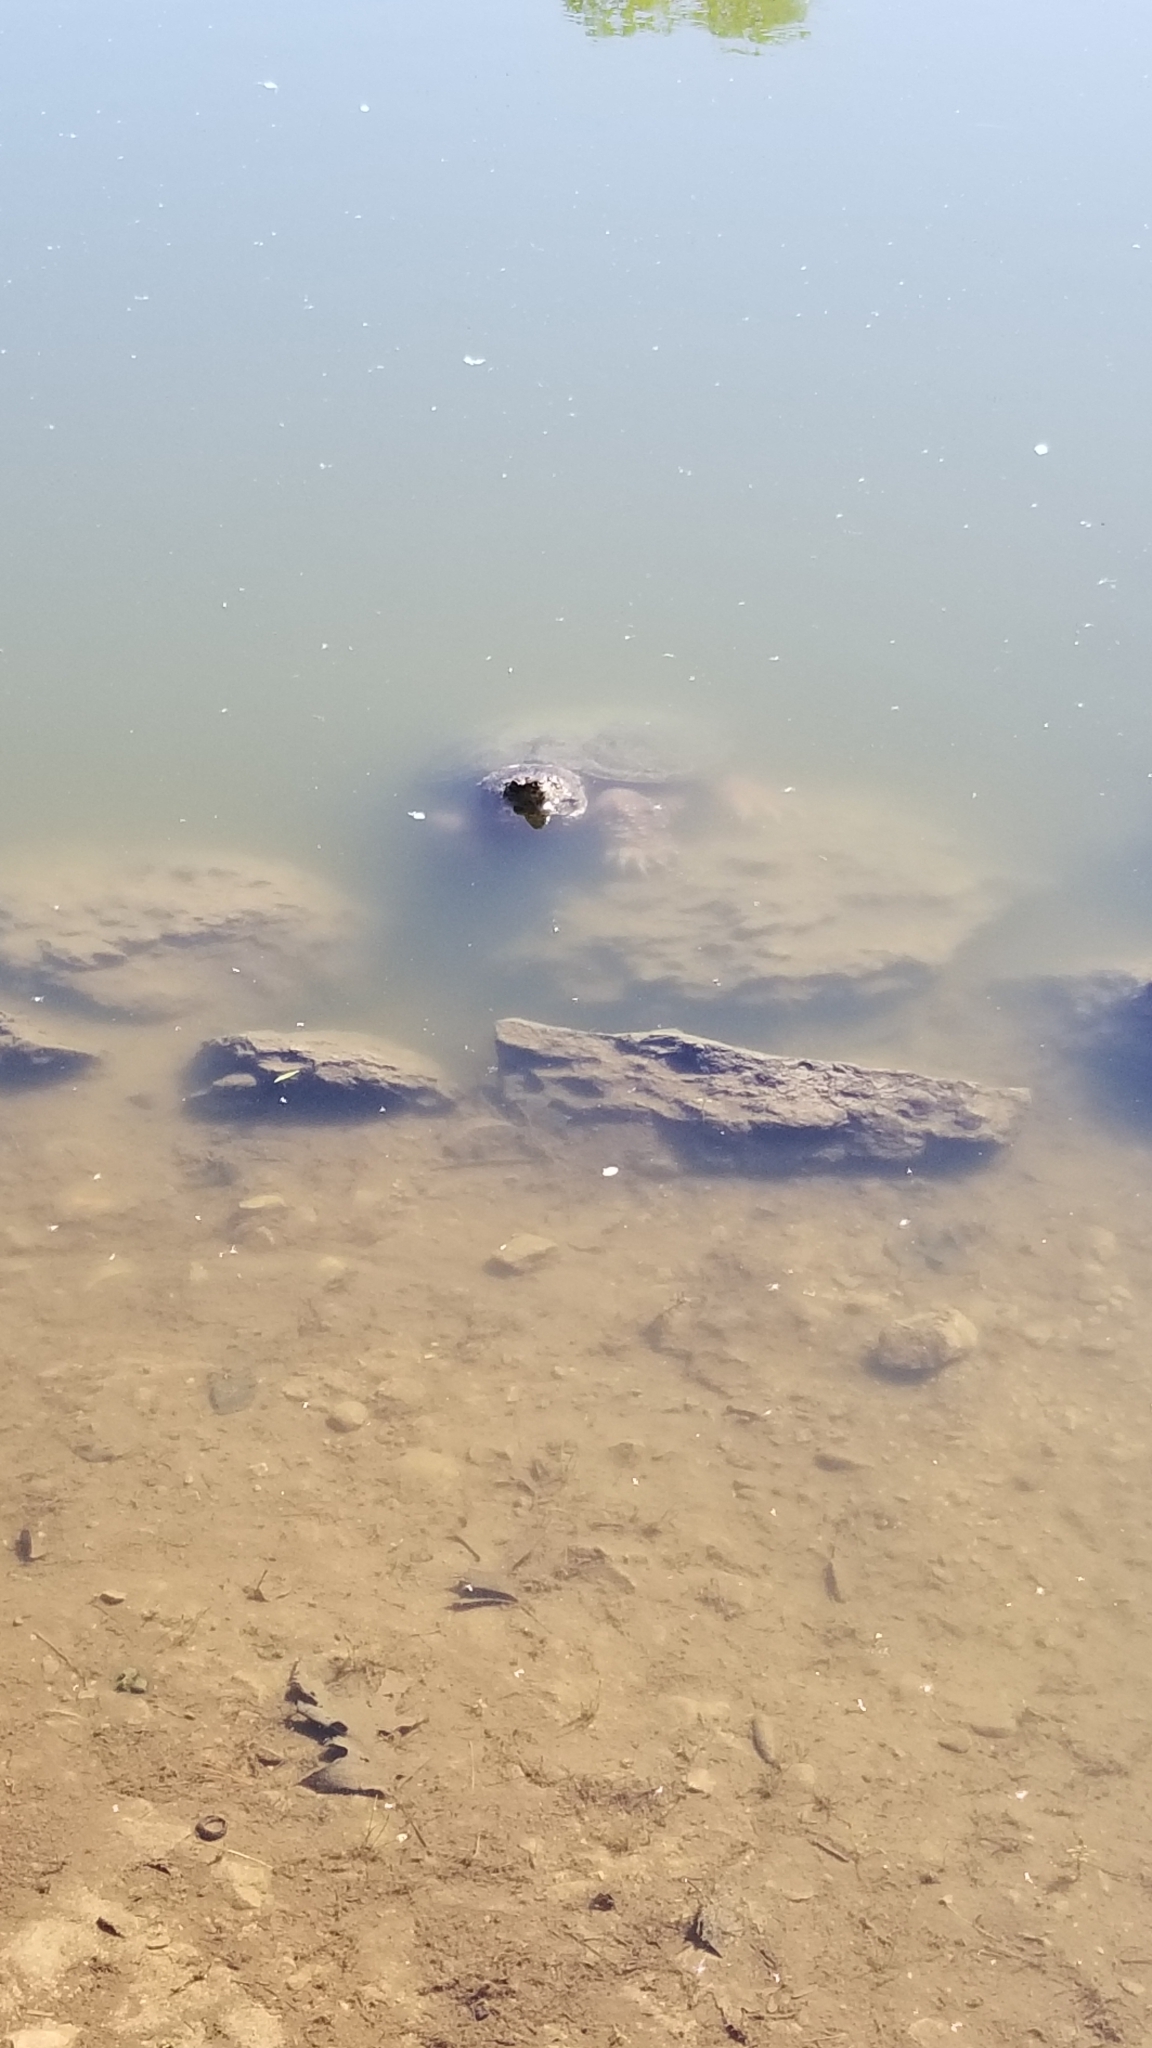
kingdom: Animalia
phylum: Chordata
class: Testudines
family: Chelydridae
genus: Chelydra
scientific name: Chelydra serpentina
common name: Common snapping turtle
